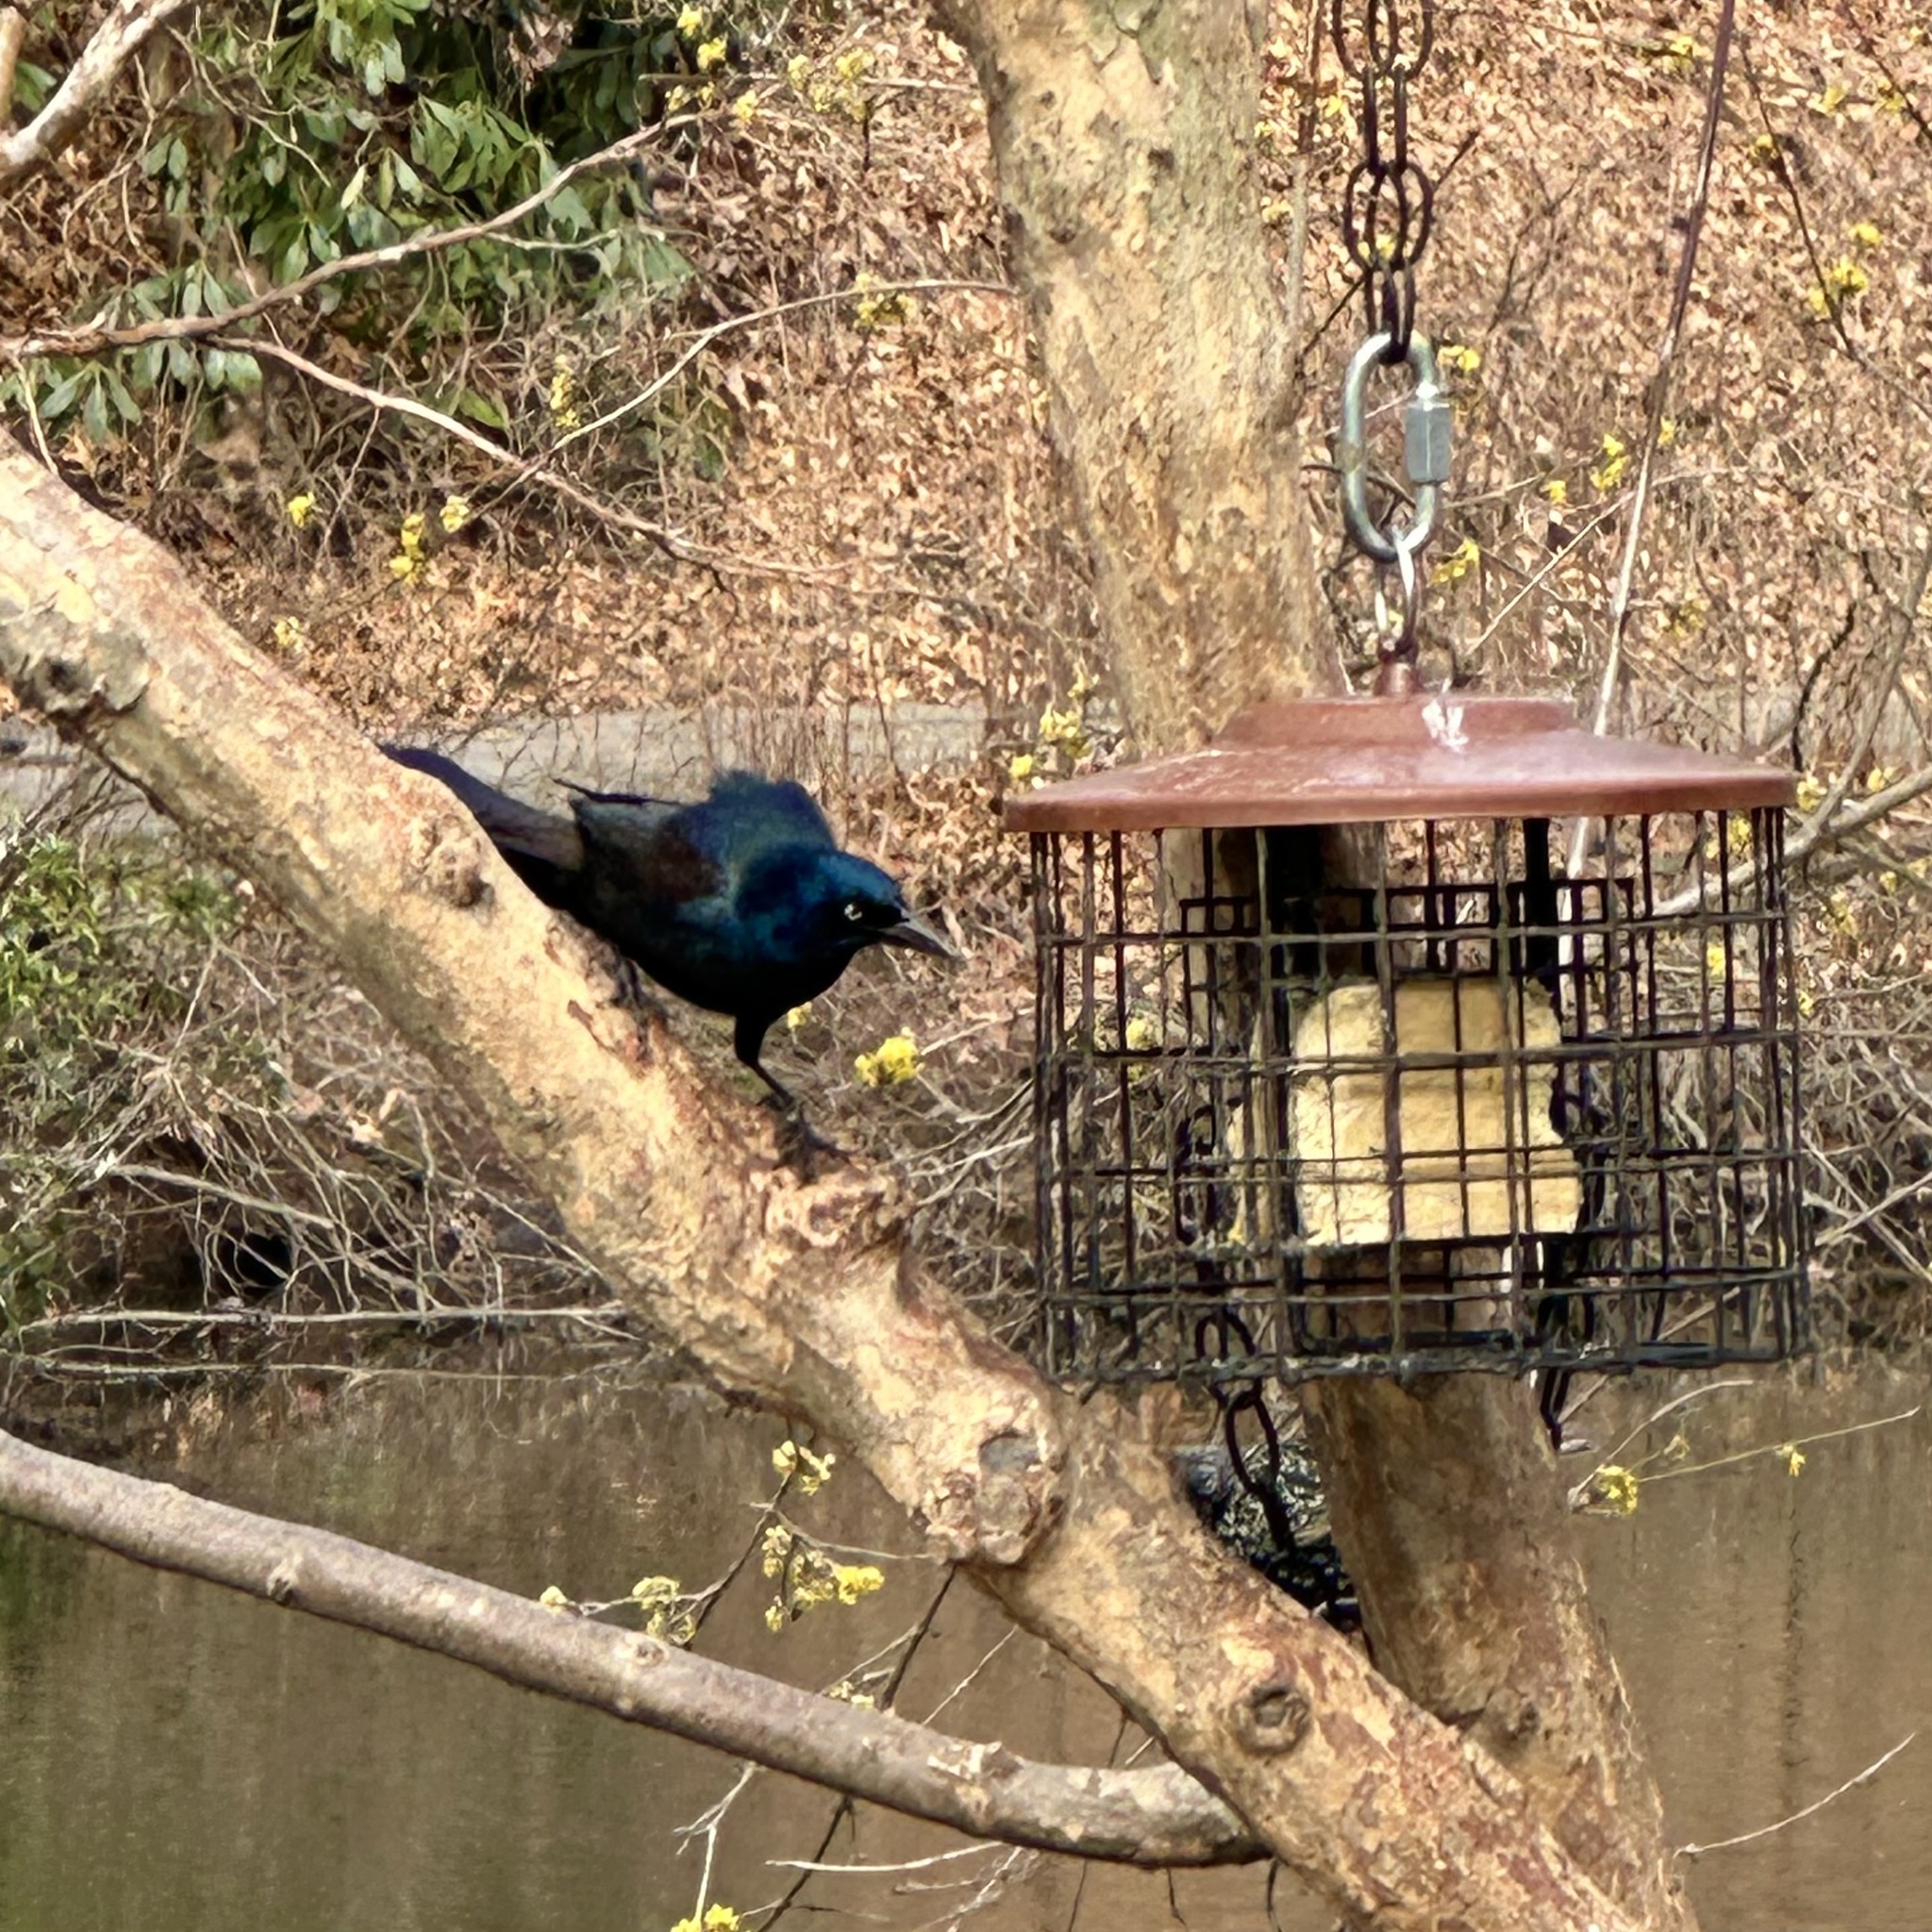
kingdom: Animalia
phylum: Chordata
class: Aves
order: Passeriformes
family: Icteridae
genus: Quiscalus
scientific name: Quiscalus quiscula
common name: Common grackle
